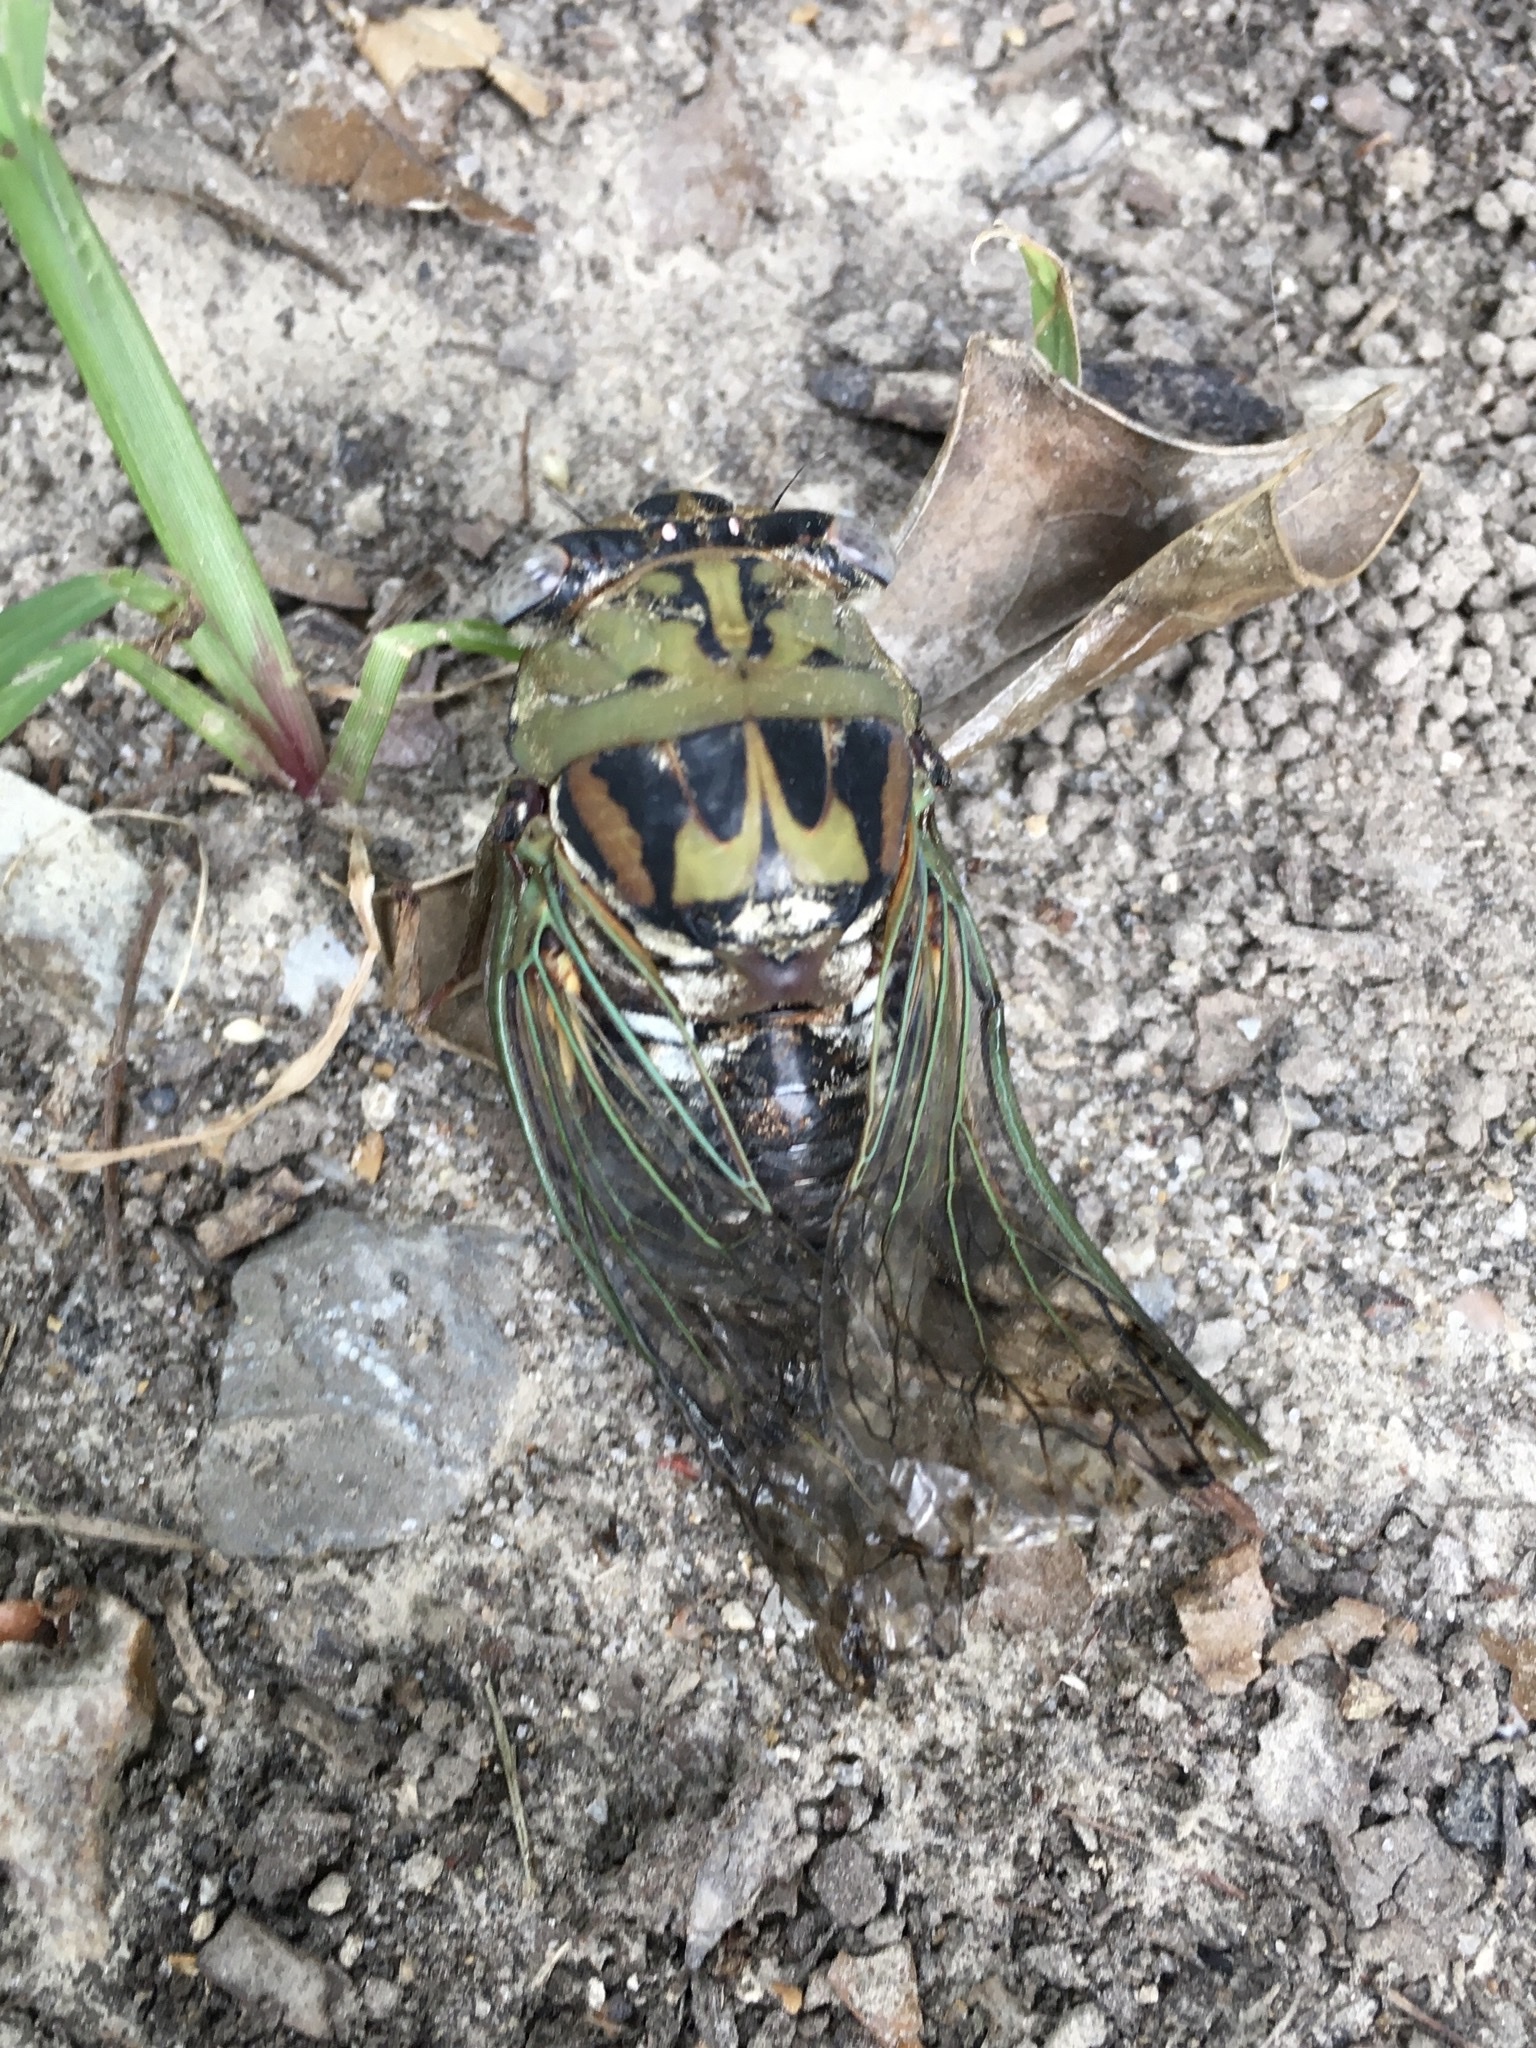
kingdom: Animalia
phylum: Arthropoda
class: Insecta
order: Hemiptera
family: Cicadidae
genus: Megatibicen
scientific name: Megatibicen resh
